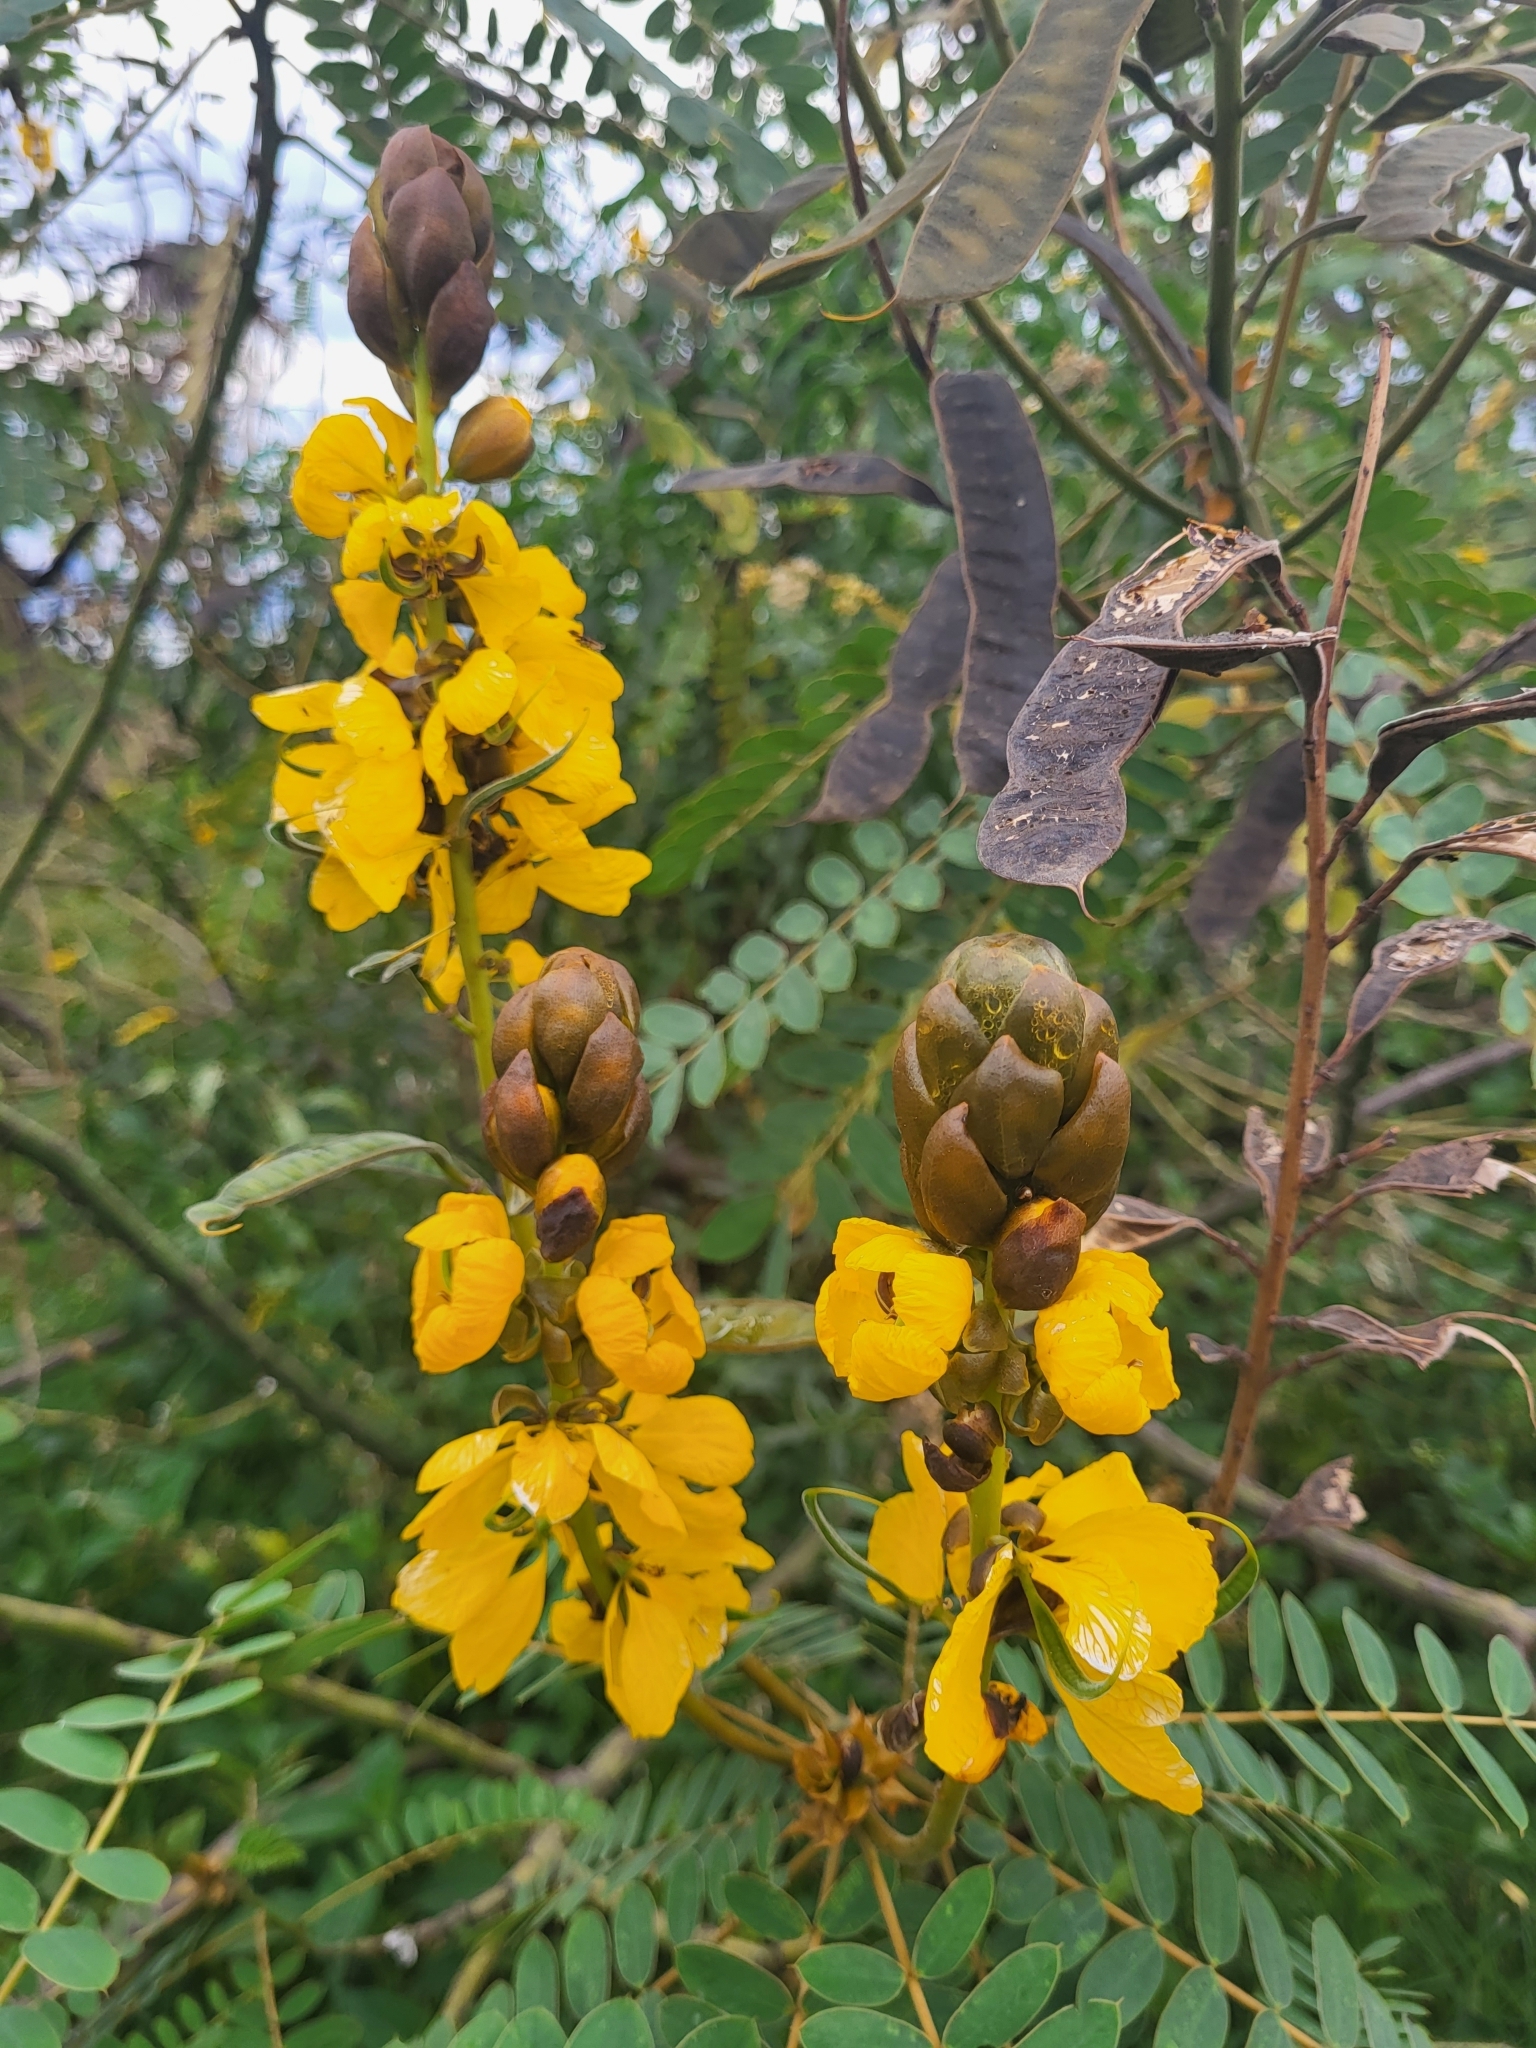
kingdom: Plantae
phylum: Tracheophyta
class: Magnoliopsida
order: Fabales
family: Fabaceae
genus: Senna
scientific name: Senna didymobotrya
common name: African senna
